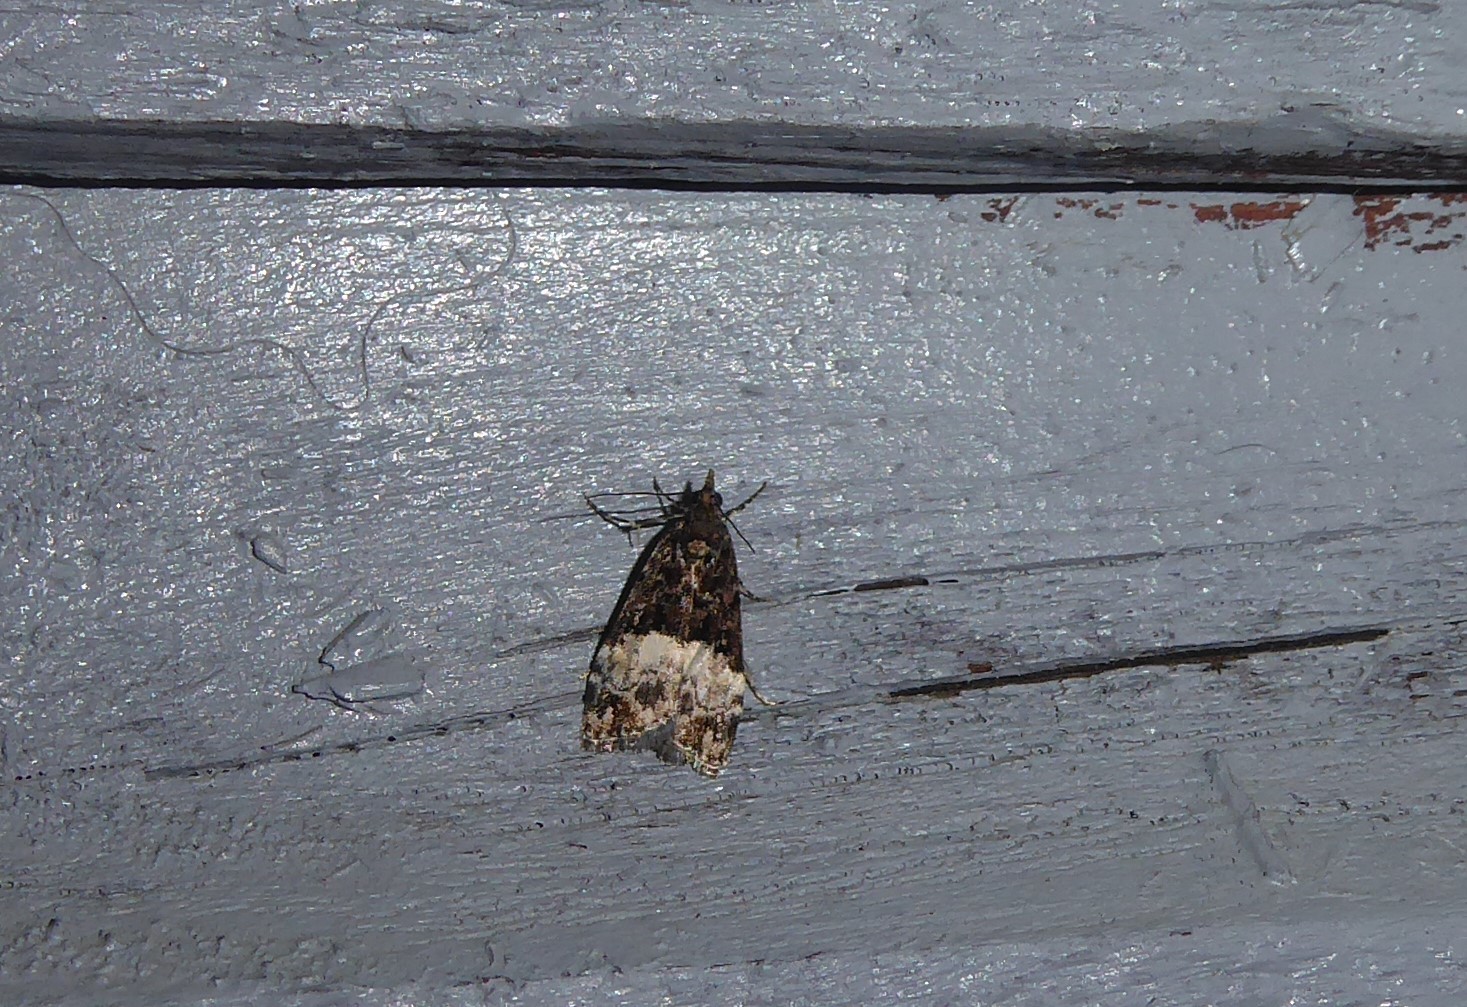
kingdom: Animalia
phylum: Arthropoda
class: Insecta
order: Lepidoptera
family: Crambidae
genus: Scoparia
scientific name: Scoparia minusculalis
